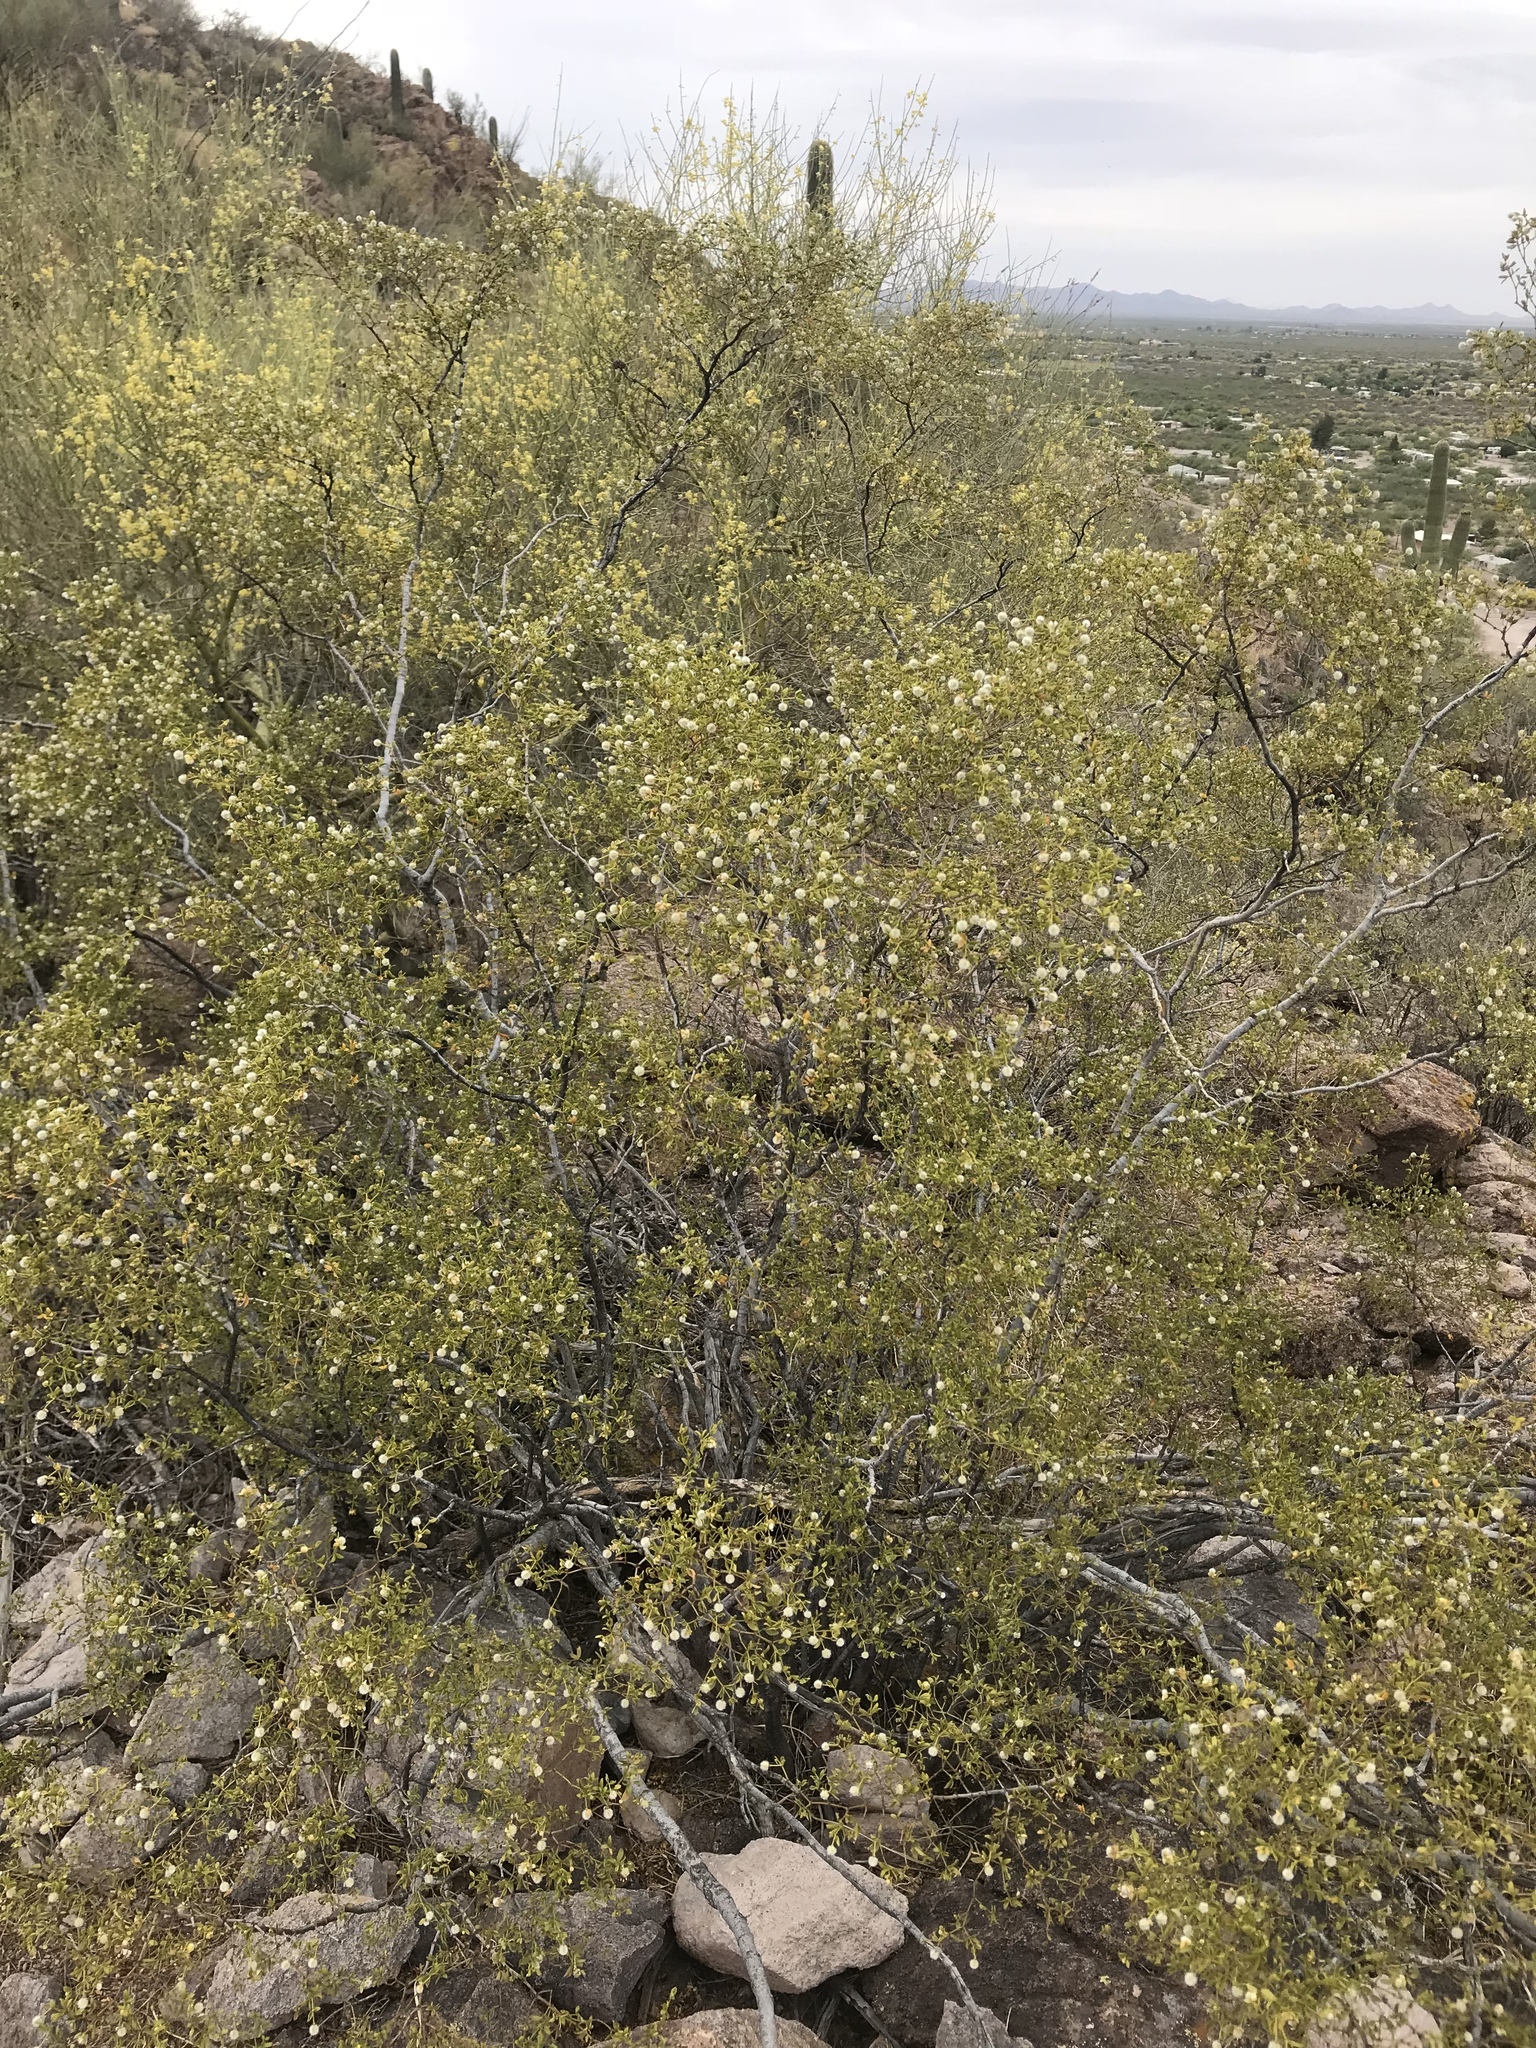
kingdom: Plantae
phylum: Tracheophyta
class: Magnoliopsida
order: Zygophyllales
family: Zygophyllaceae
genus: Larrea
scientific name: Larrea tridentata
